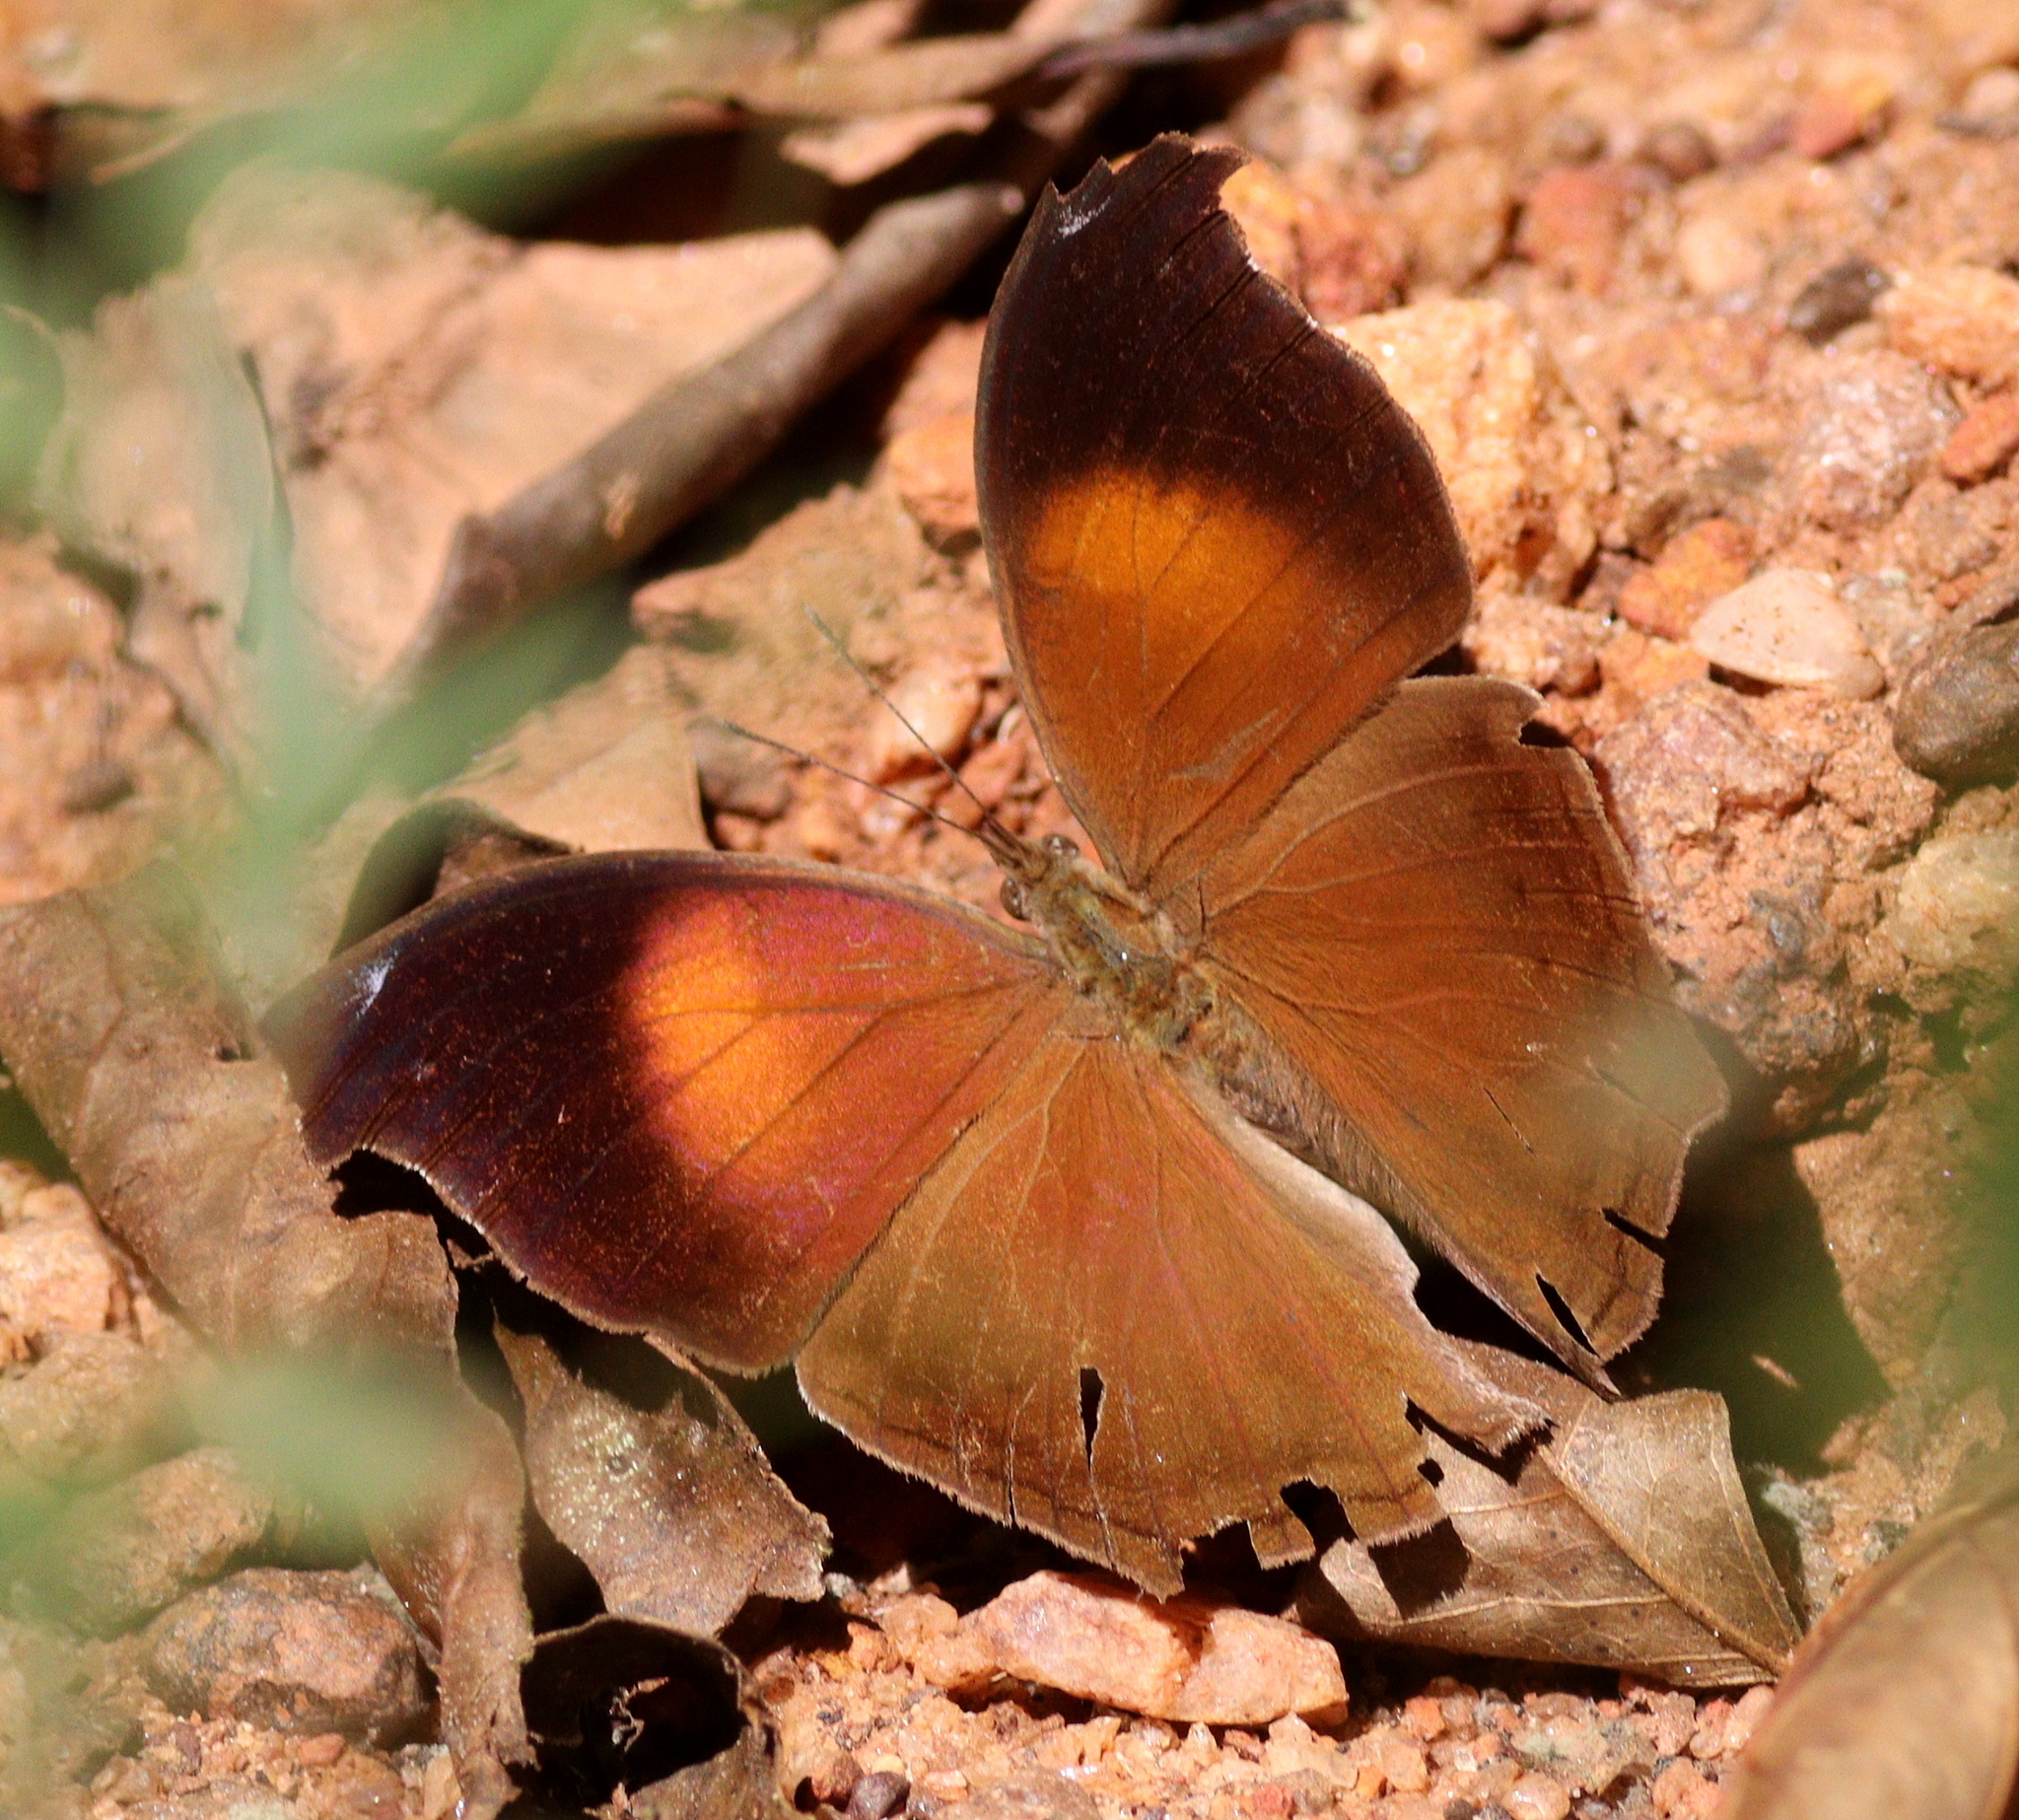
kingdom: Animalia
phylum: Arthropoda
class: Insecta
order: Lepidoptera
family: Nymphalidae
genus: Salamis
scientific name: Salamis cacta
